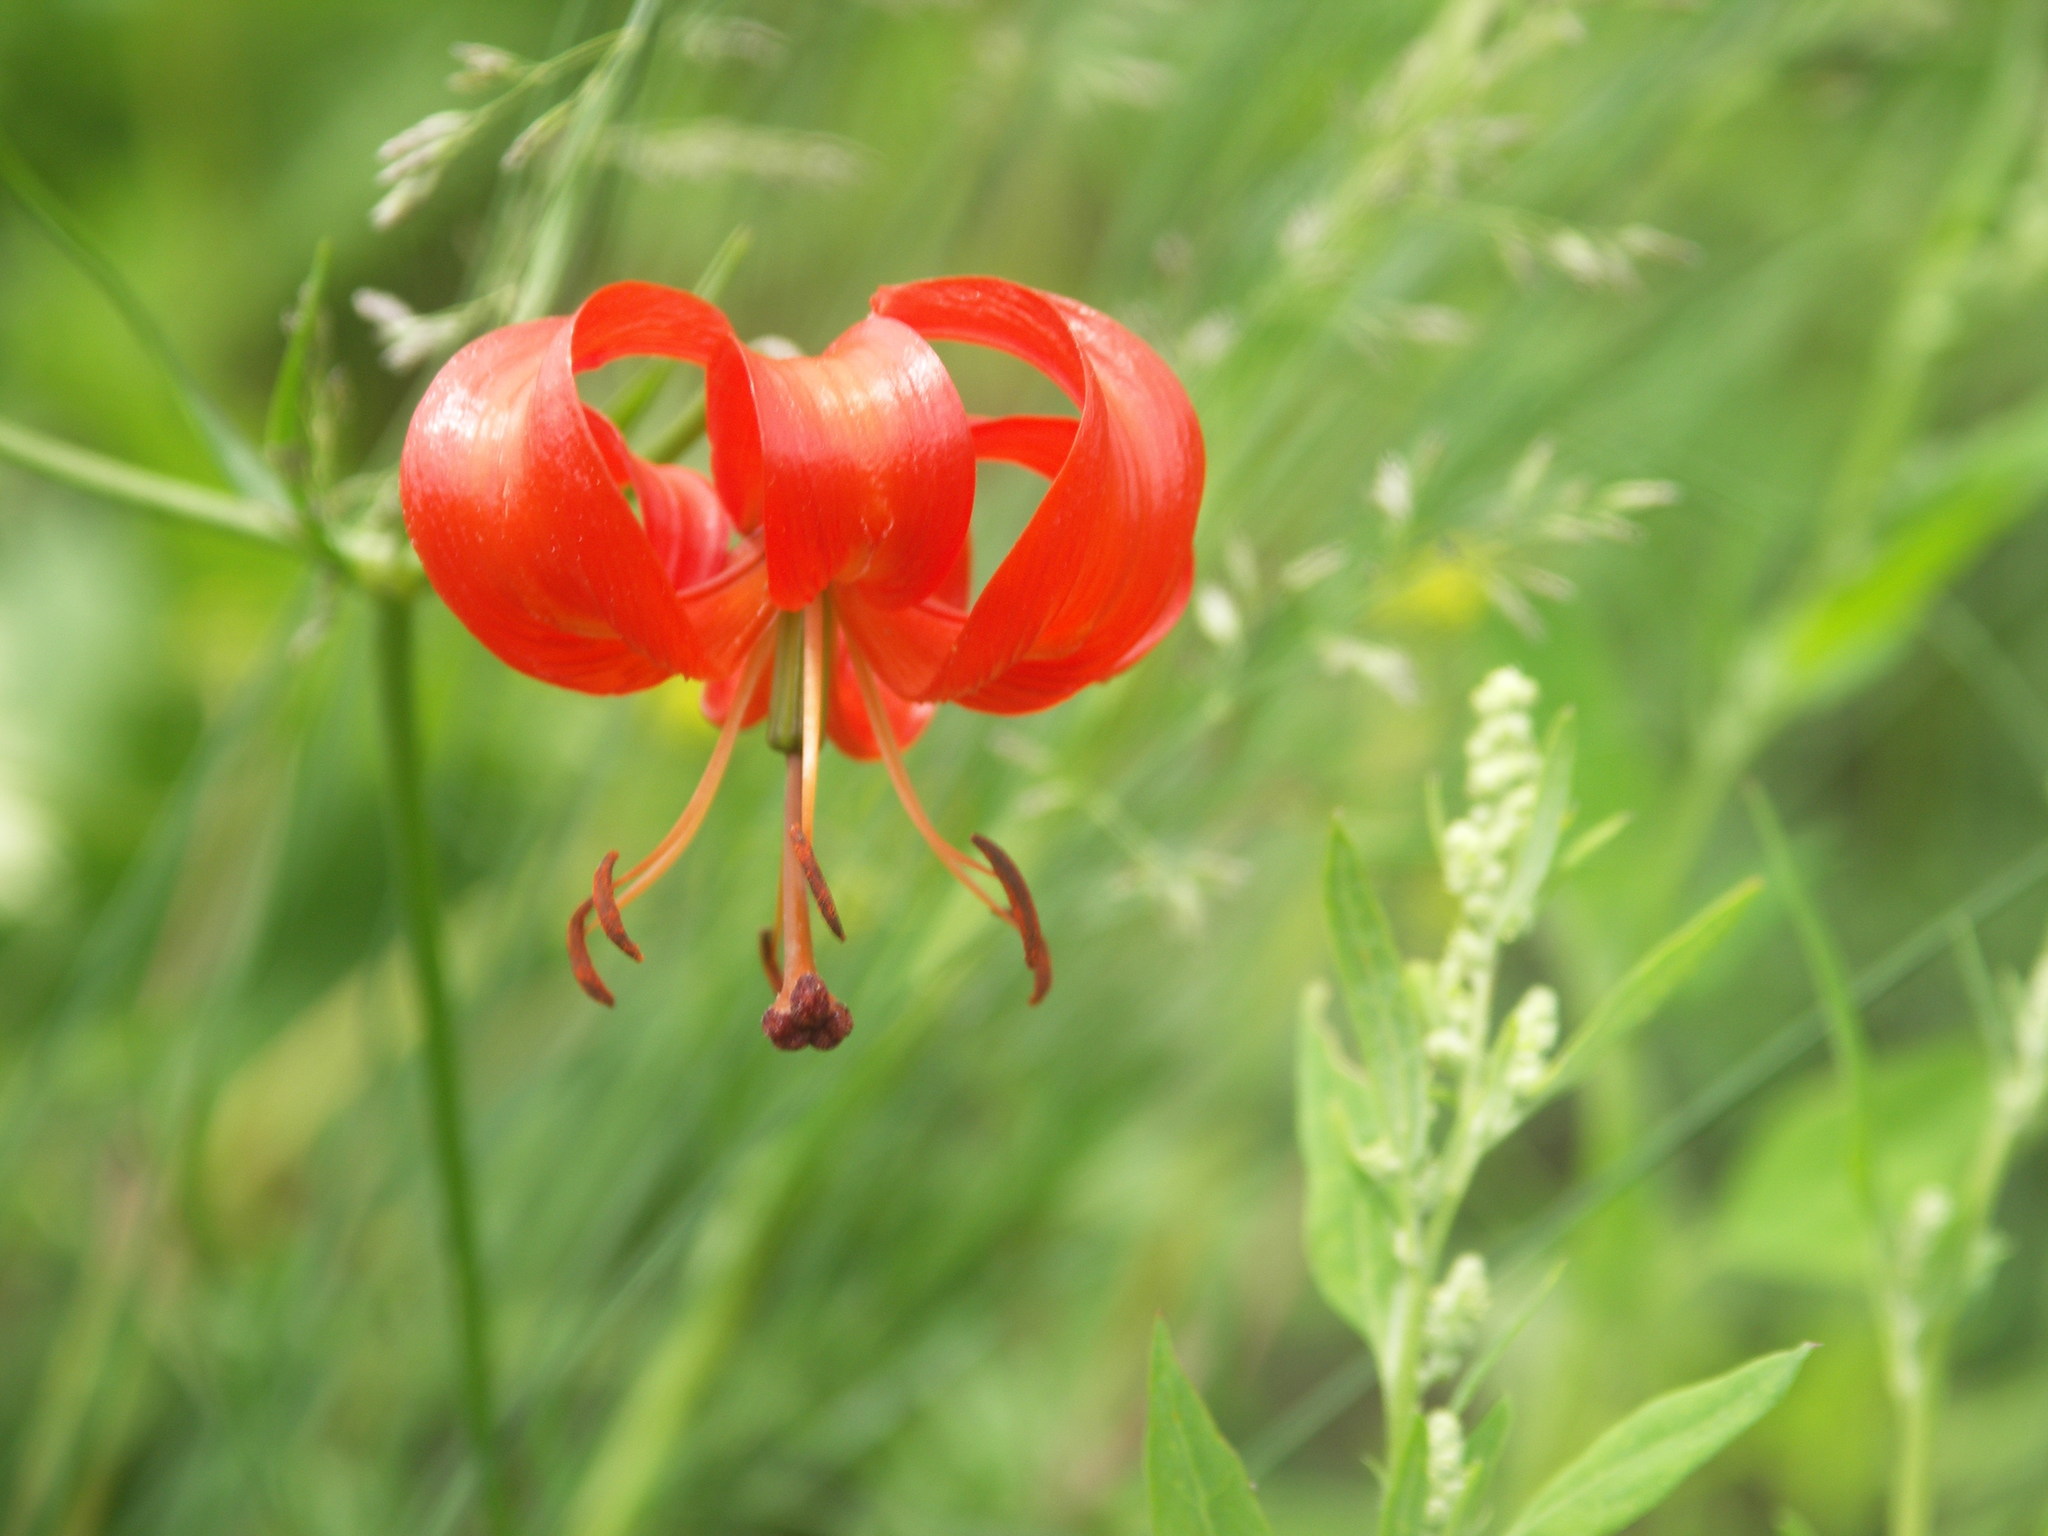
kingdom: Plantae
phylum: Tracheophyta
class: Liliopsida
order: Liliales
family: Liliaceae
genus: Lilium
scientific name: Lilium pumilum
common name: Coral lily
